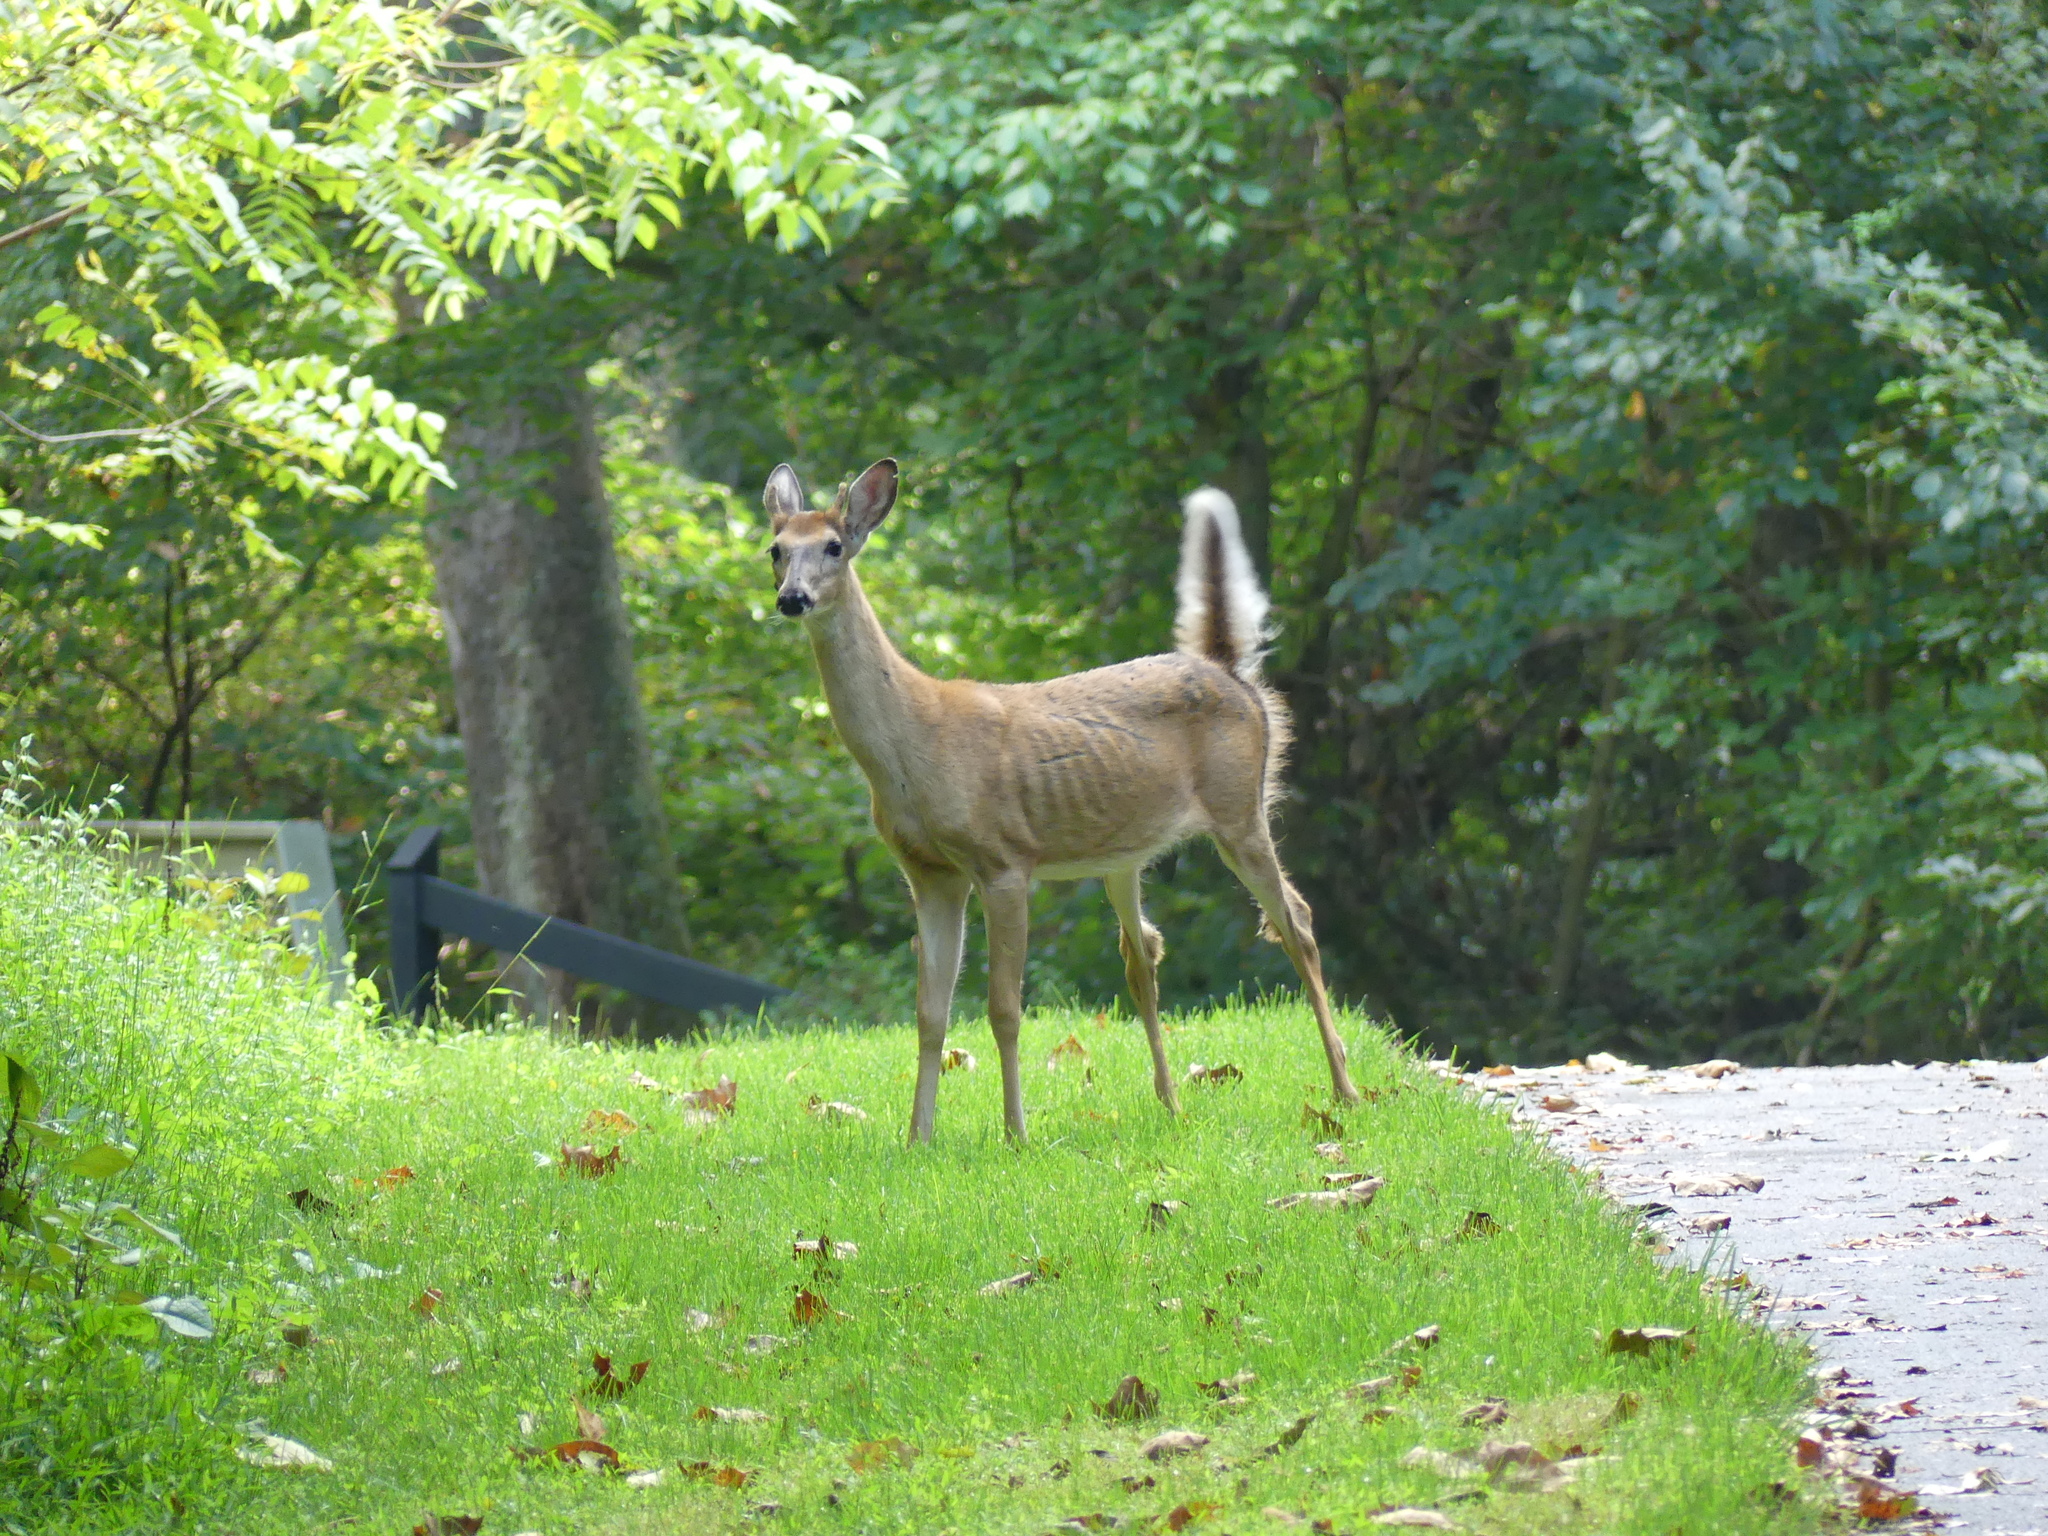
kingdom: Animalia
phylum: Chordata
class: Mammalia
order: Artiodactyla
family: Cervidae
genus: Odocoileus
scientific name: Odocoileus virginianus
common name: White-tailed deer
